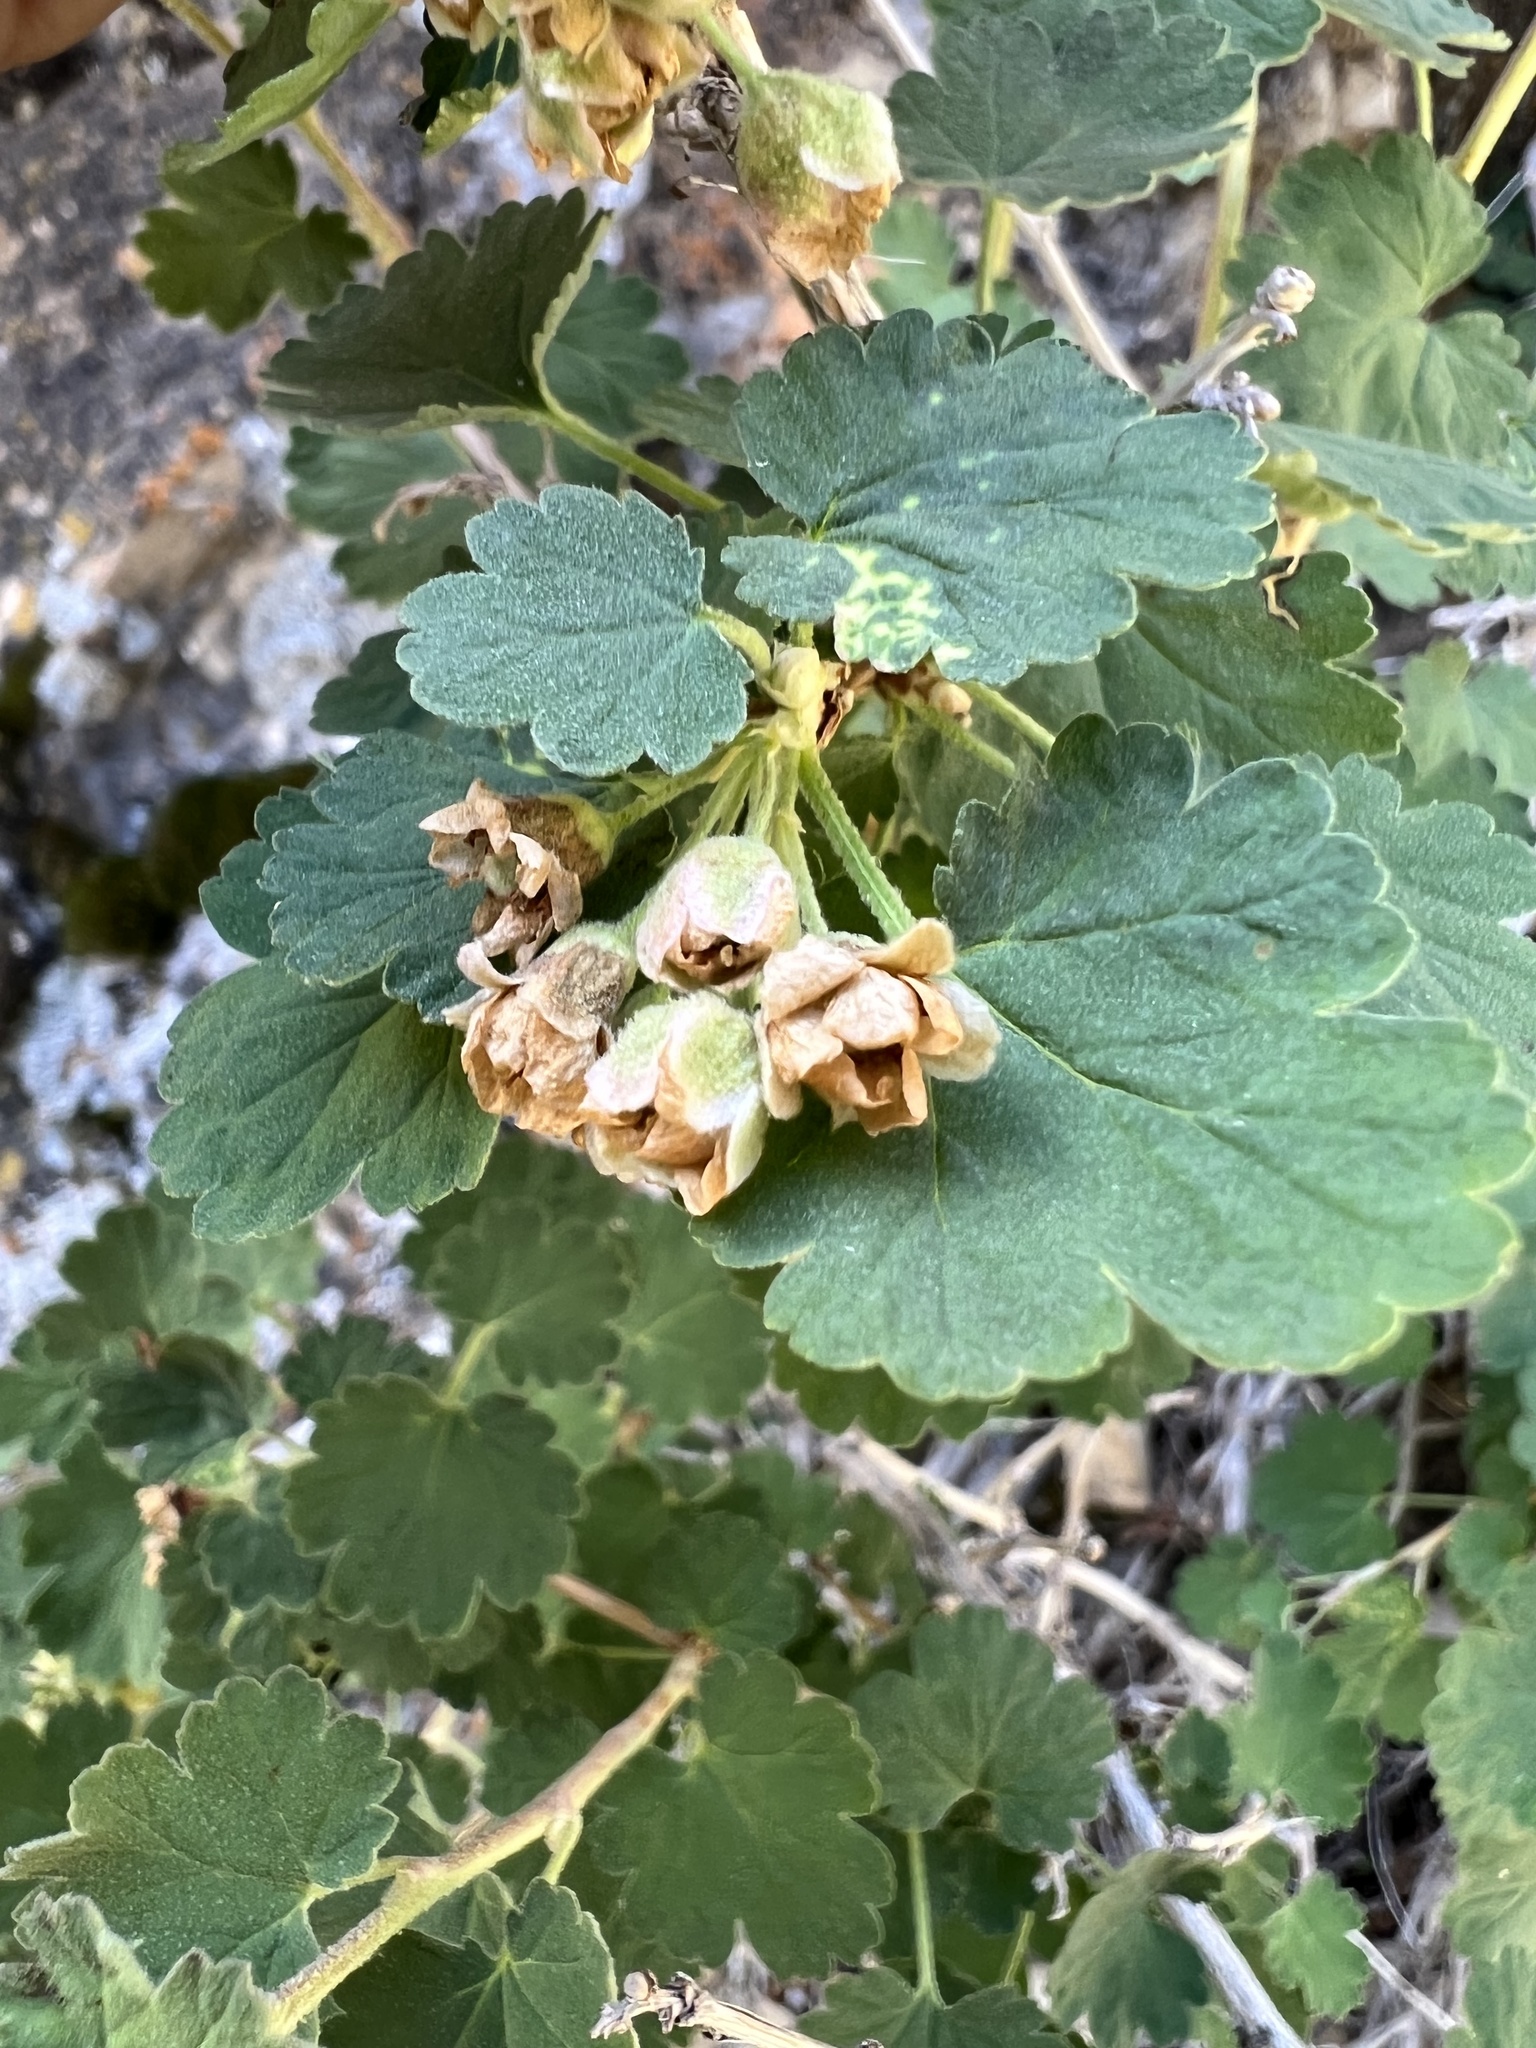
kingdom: Plantae
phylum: Tracheophyta
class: Magnoliopsida
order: Rosales
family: Rosaceae
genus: Physocarpus
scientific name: Physocarpus alternans
